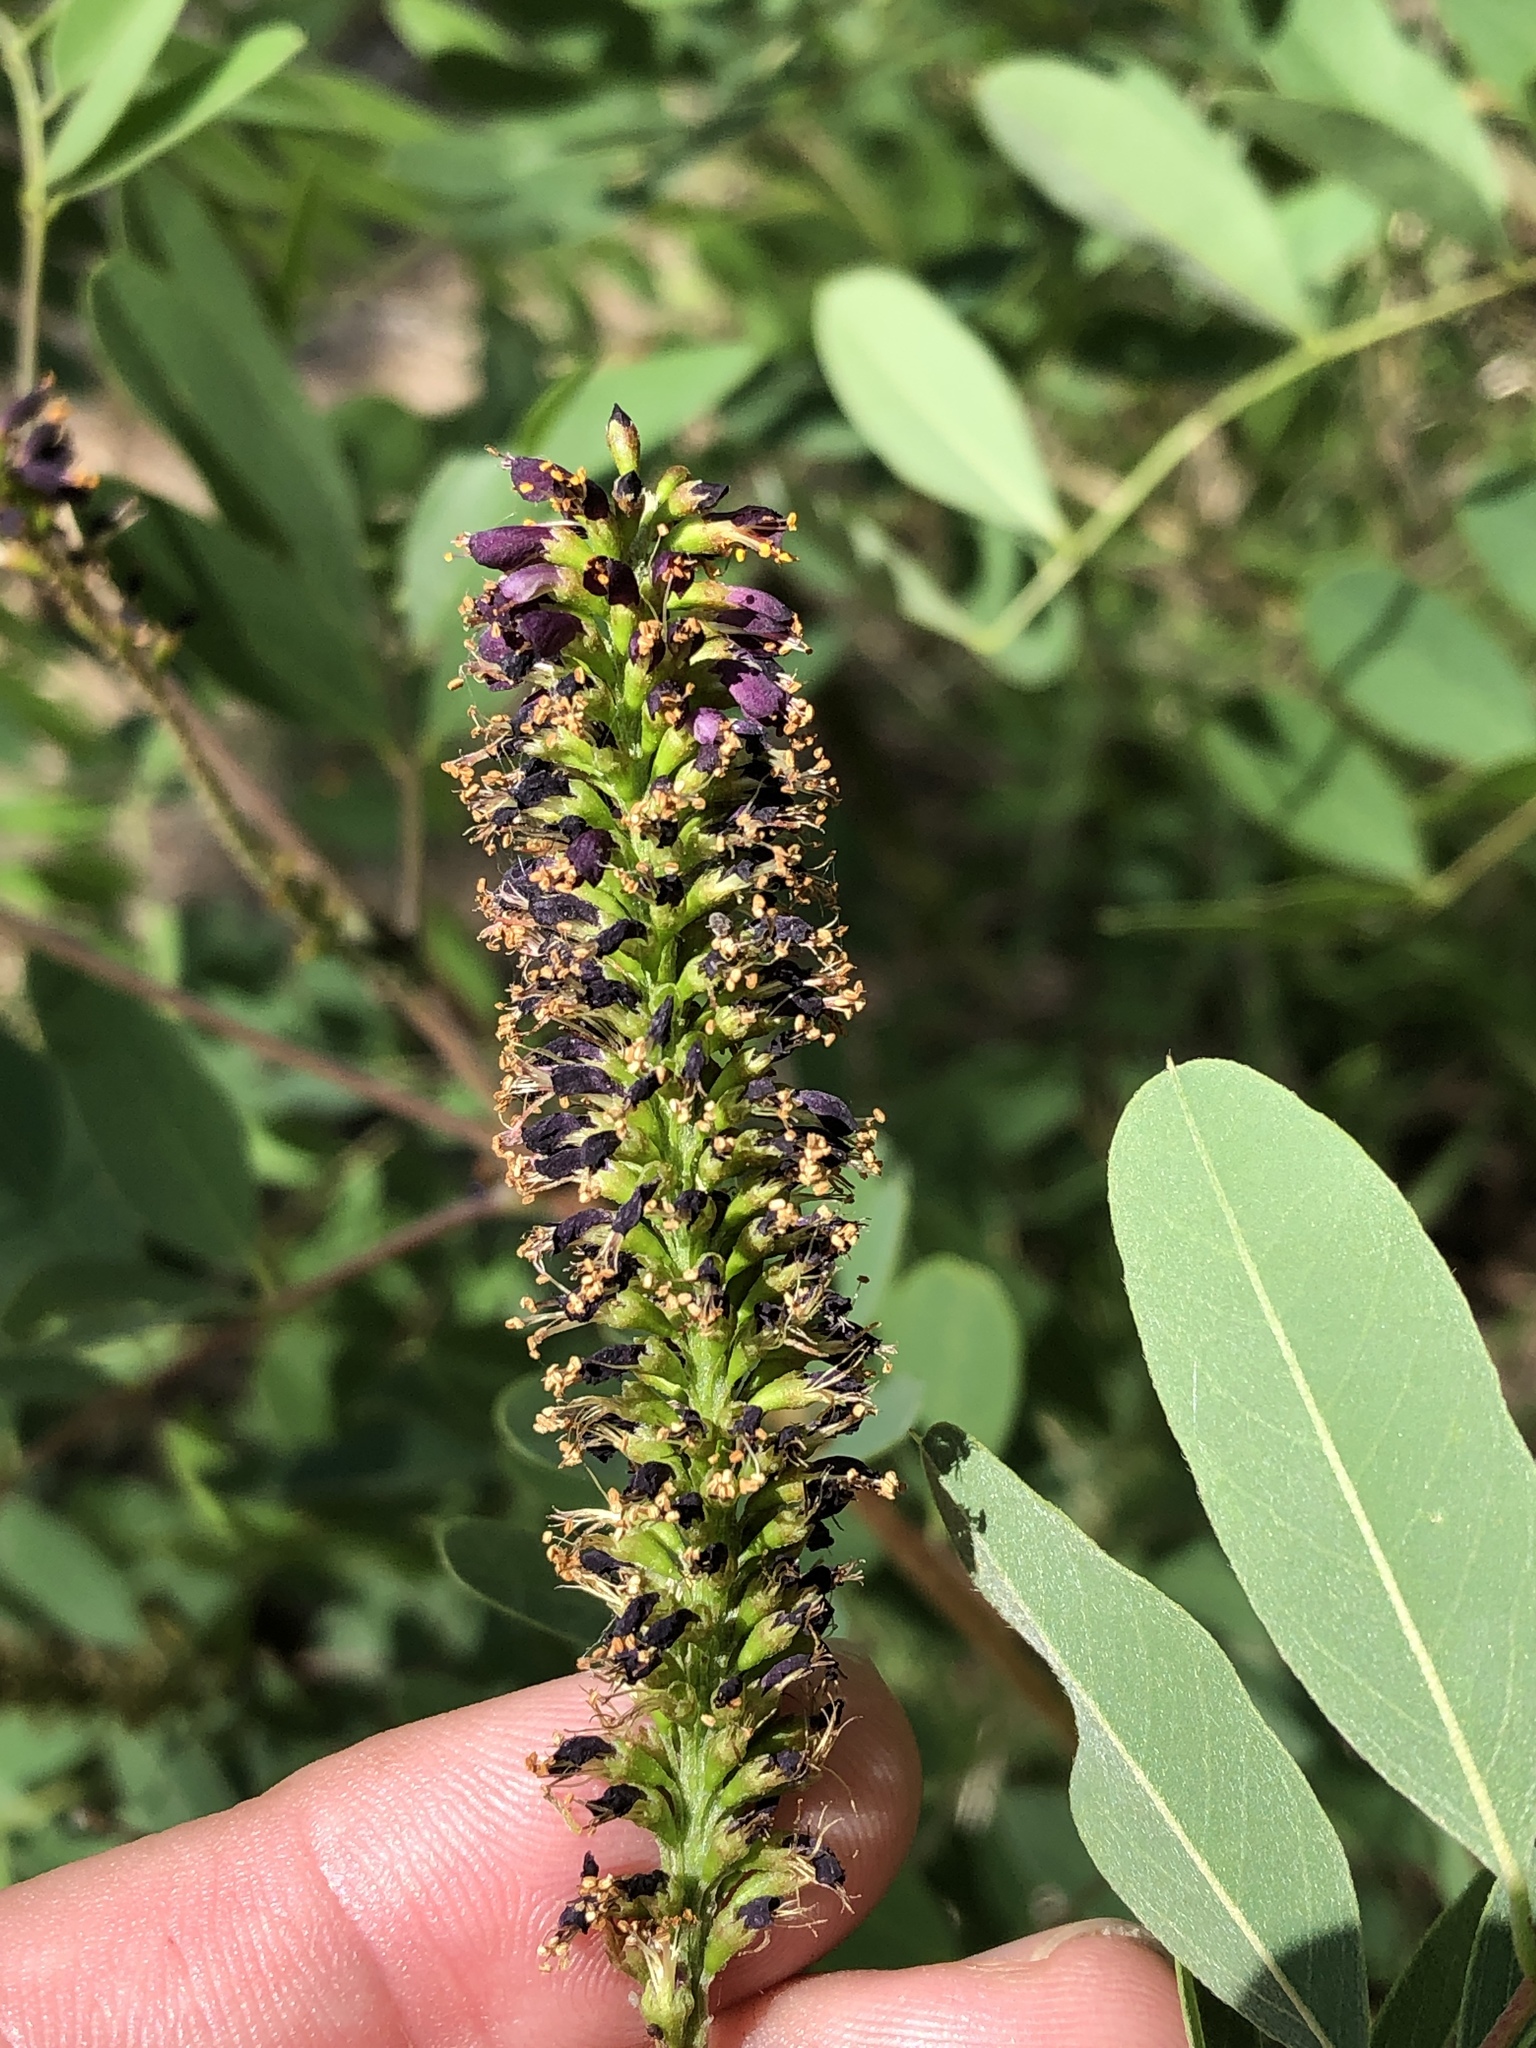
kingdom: Plantae
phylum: Tracheophyta
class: Magnoliopsida
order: Fabales
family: Fabaceae
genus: Amorpha
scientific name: Amorpha fruticosa
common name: False indigo
